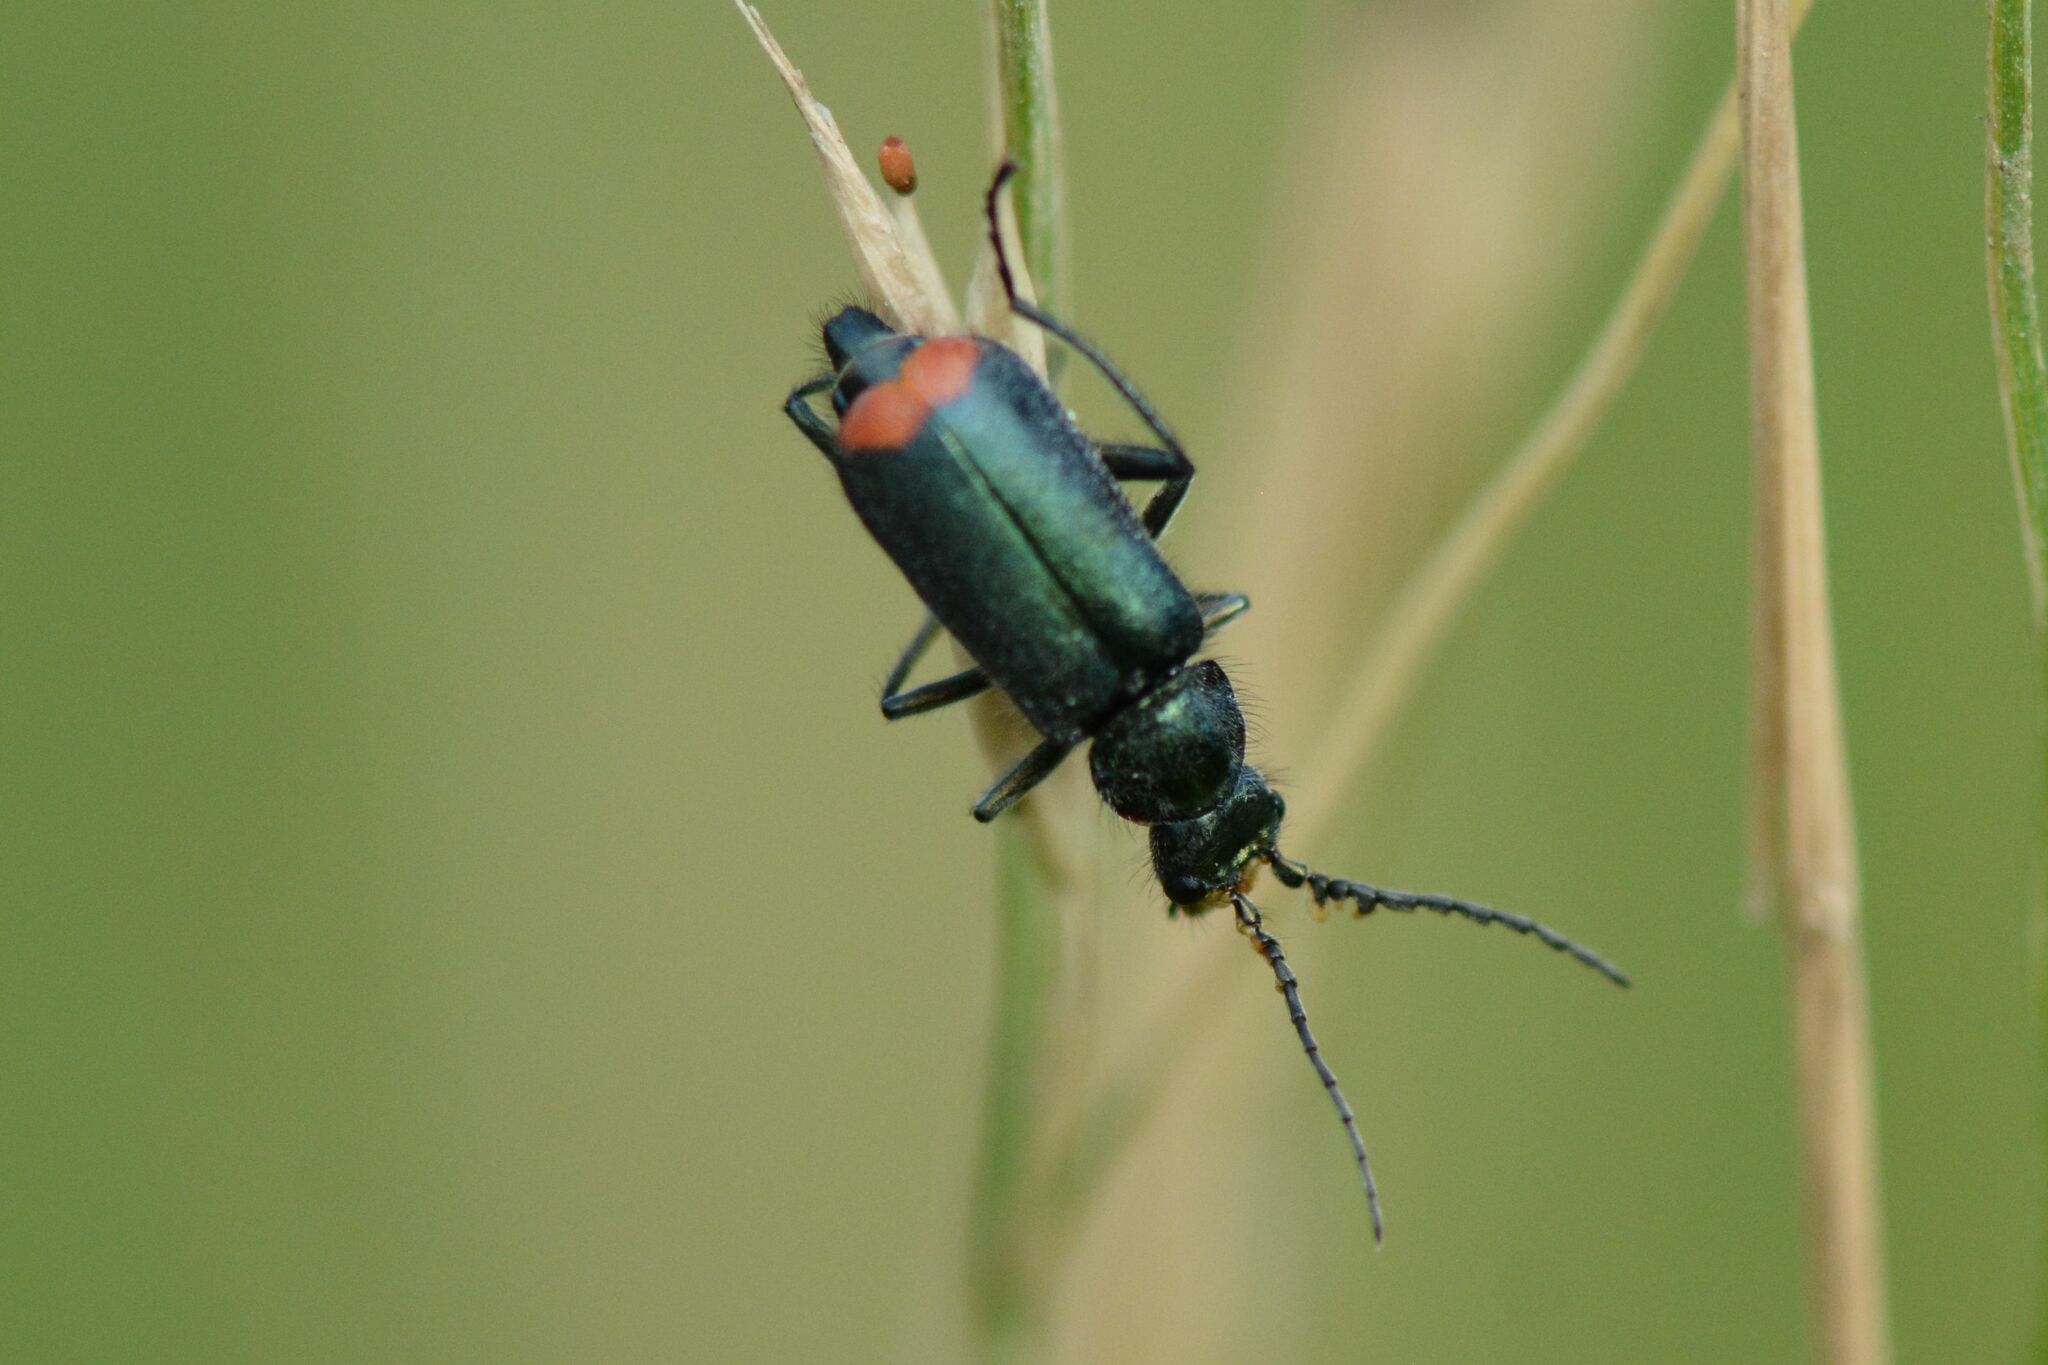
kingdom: Animalia
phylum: Arthropoda
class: Insecta
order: Coleoptera
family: Melyridae
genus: Malachius
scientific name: Malachius bipustulatus
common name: Malachite beetle
